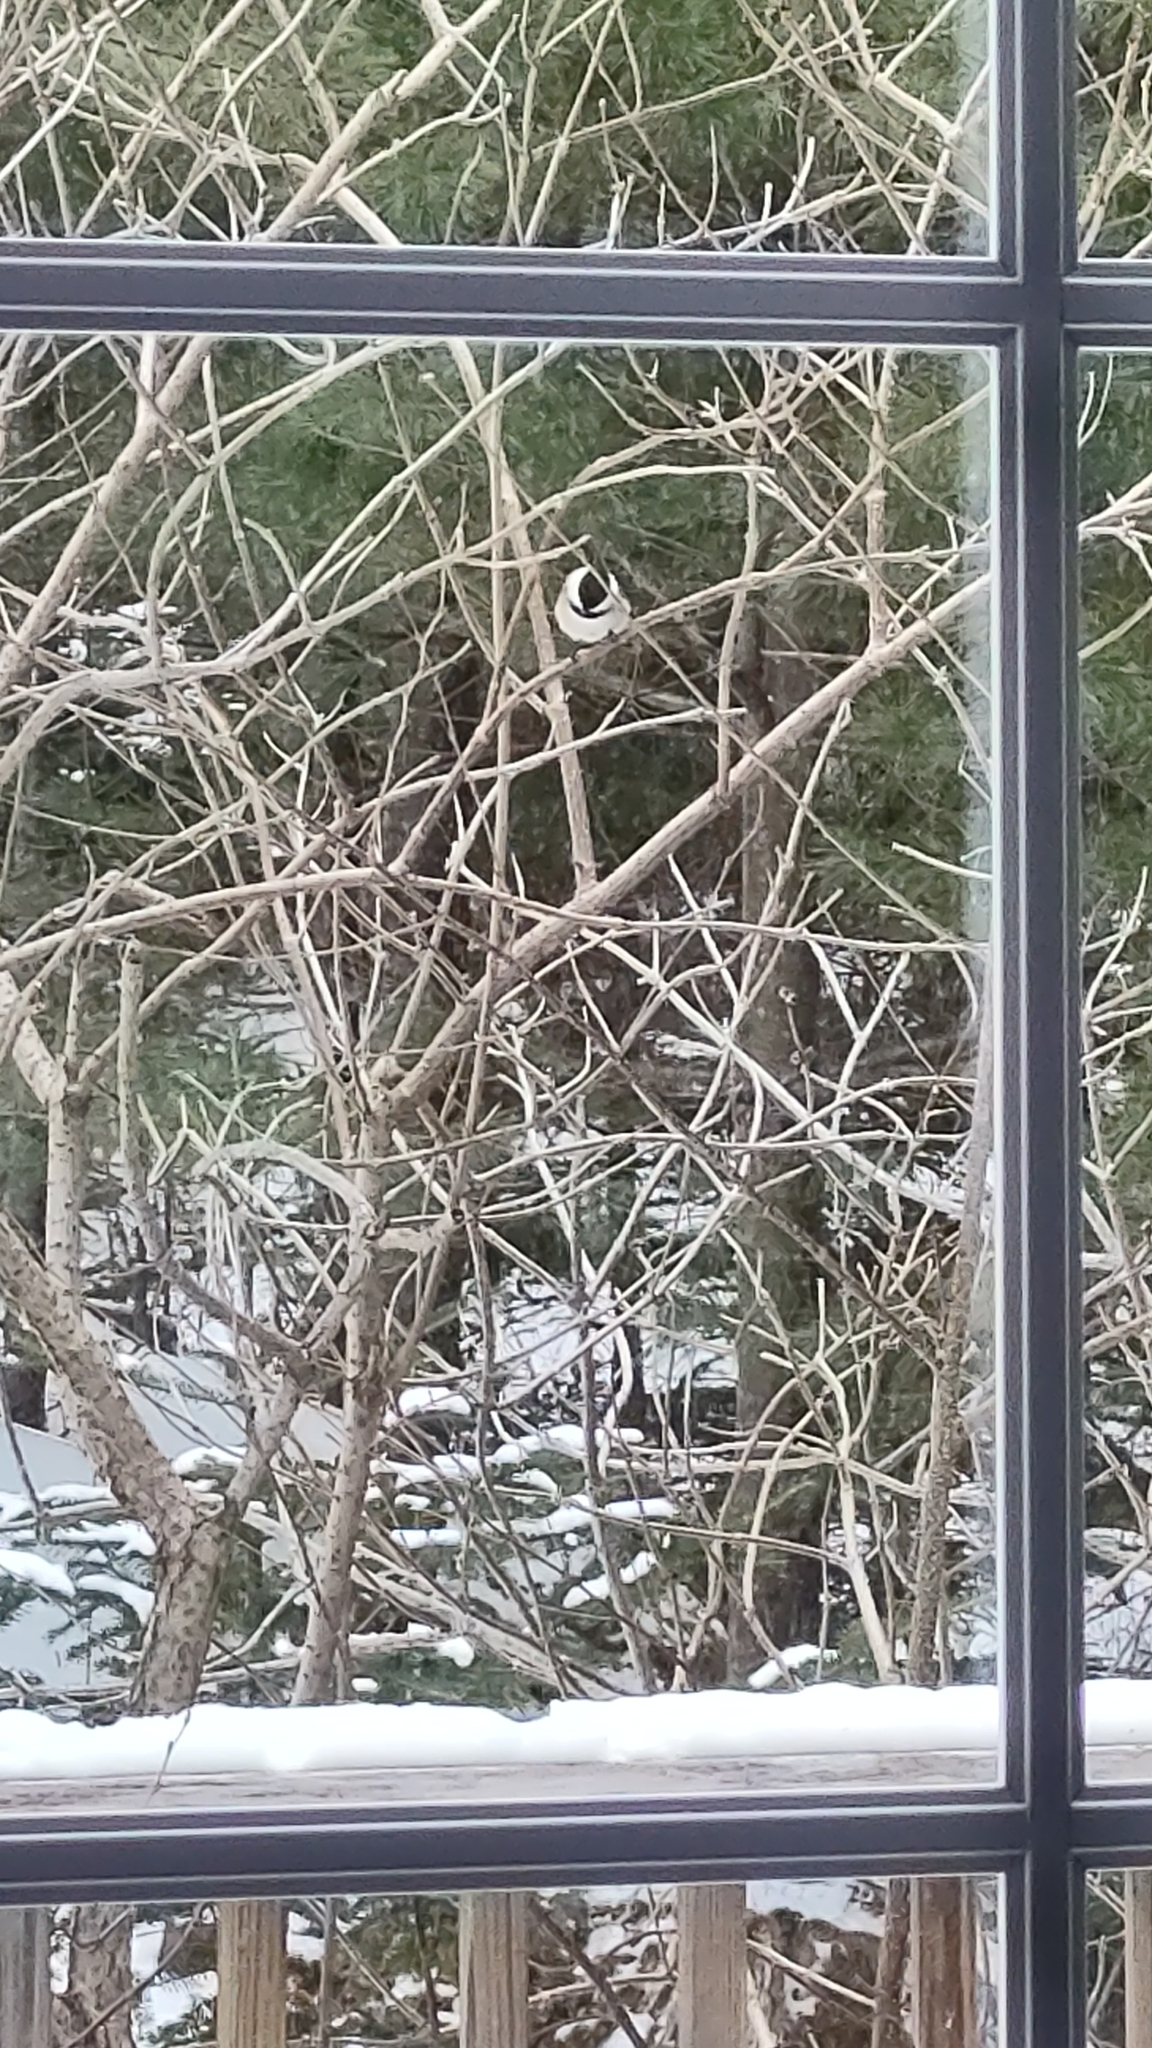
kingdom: Animalia
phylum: Chordata
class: Aves
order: Passeriformes
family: Paridae
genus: Poecile
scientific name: Poecile atricapillus
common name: Black-capped chickadee
